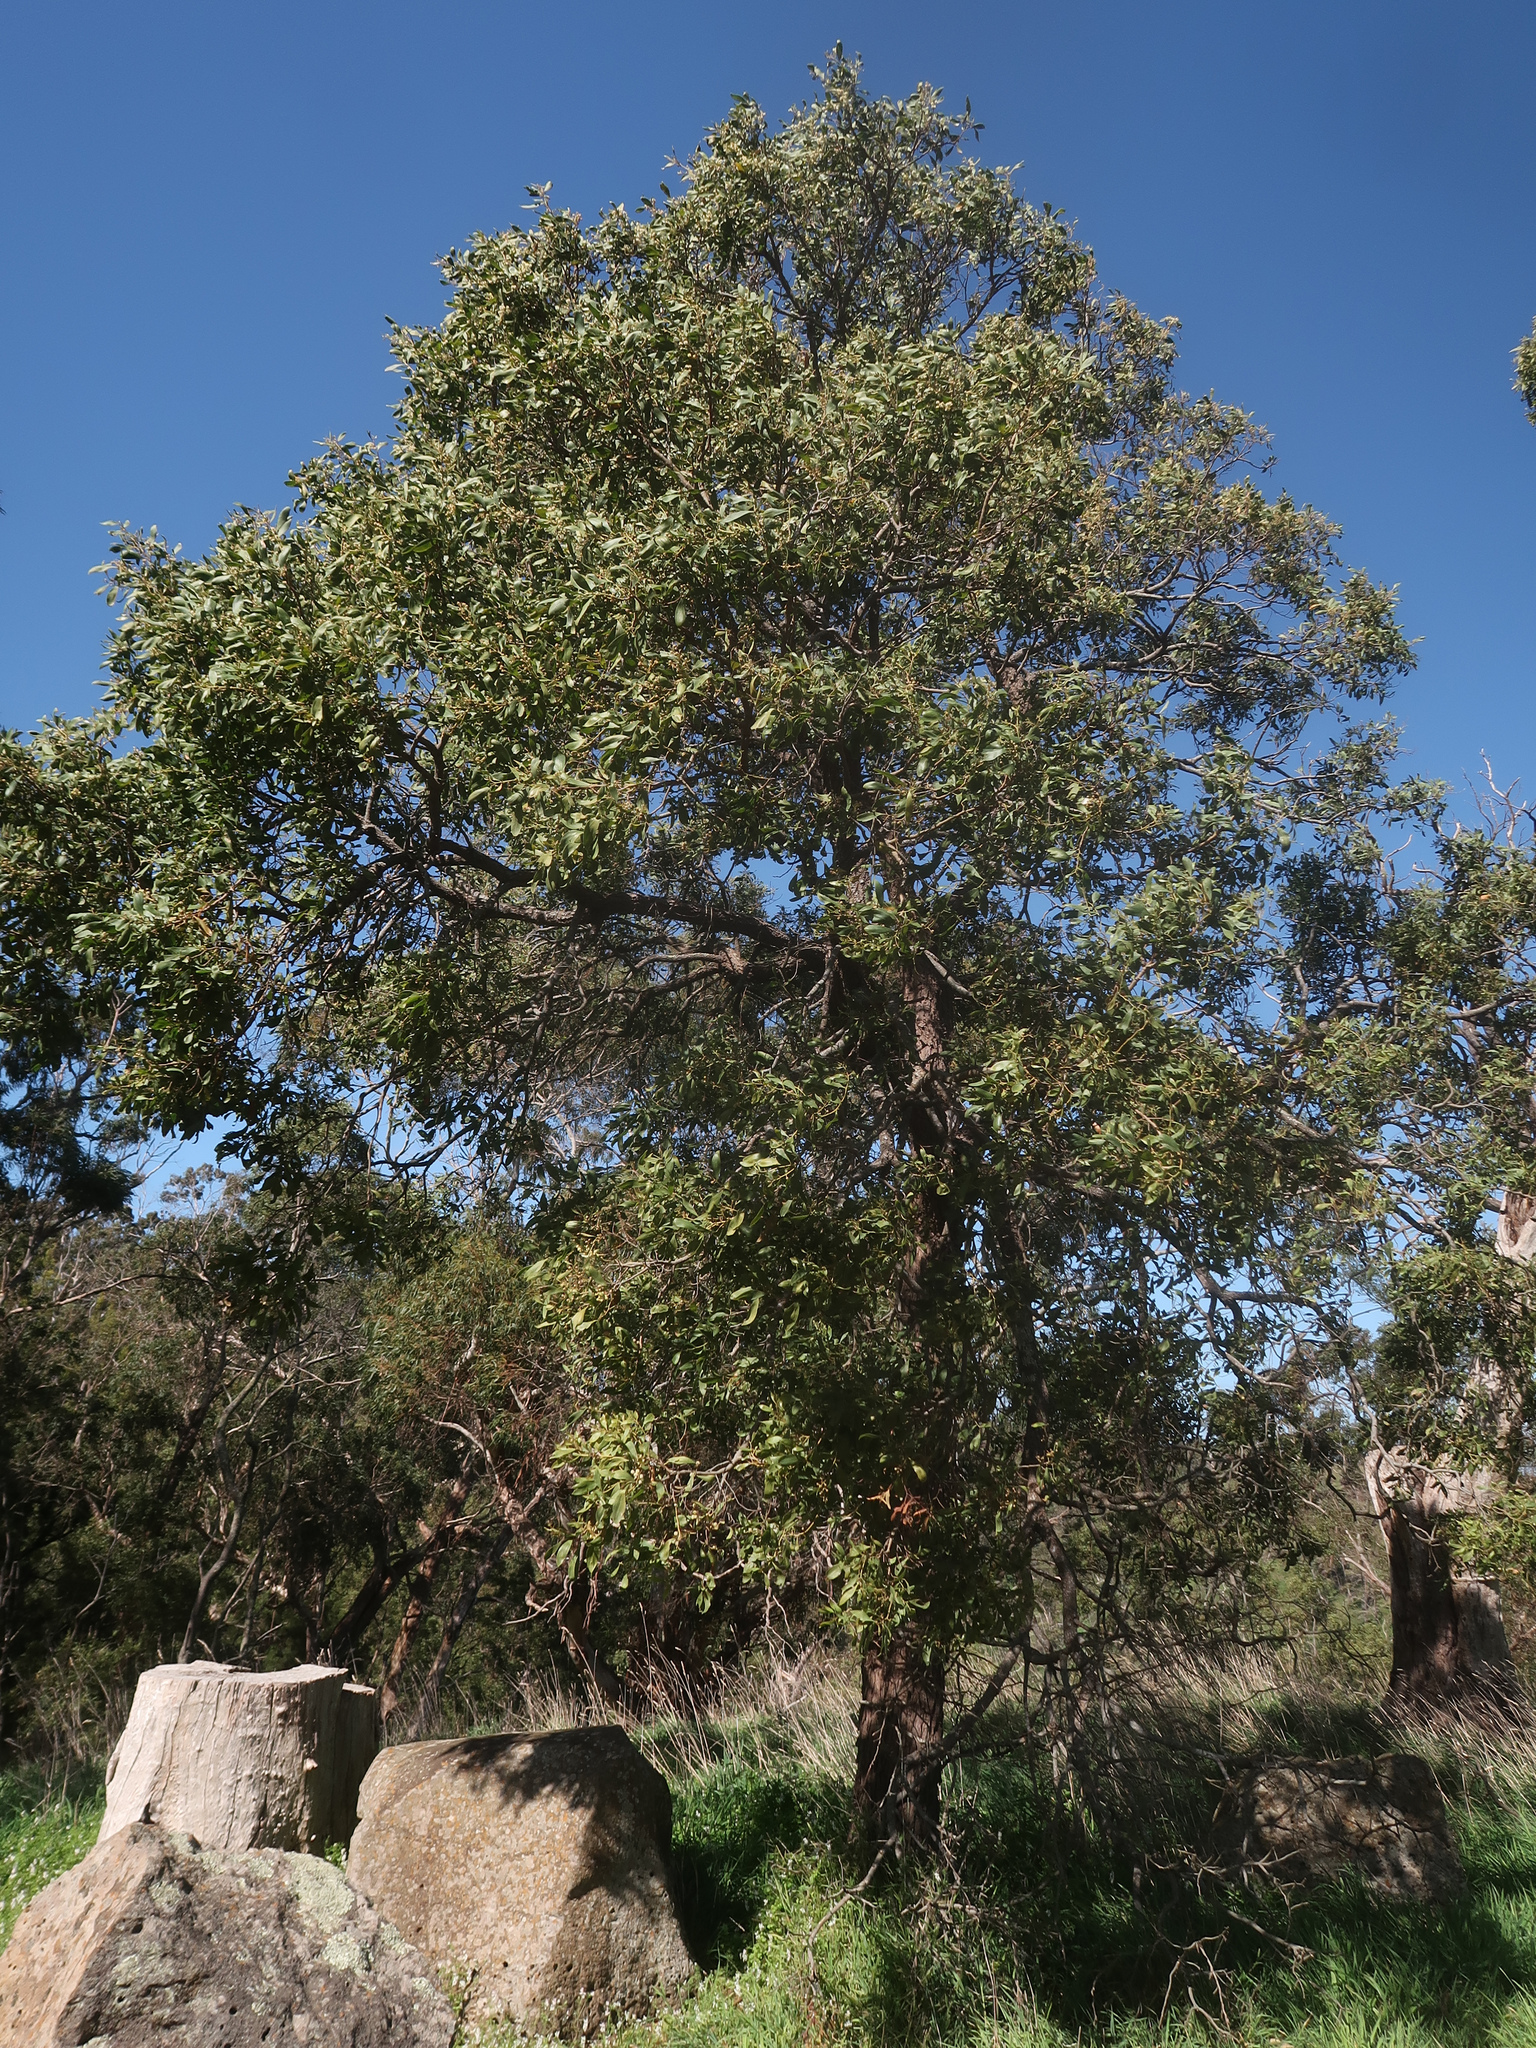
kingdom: Plantae
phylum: Tracheophyta
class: Magnoliopsida
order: Fabales
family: Fabaceae
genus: Acacia
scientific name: Acacia melanoxylon
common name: Blackwood
